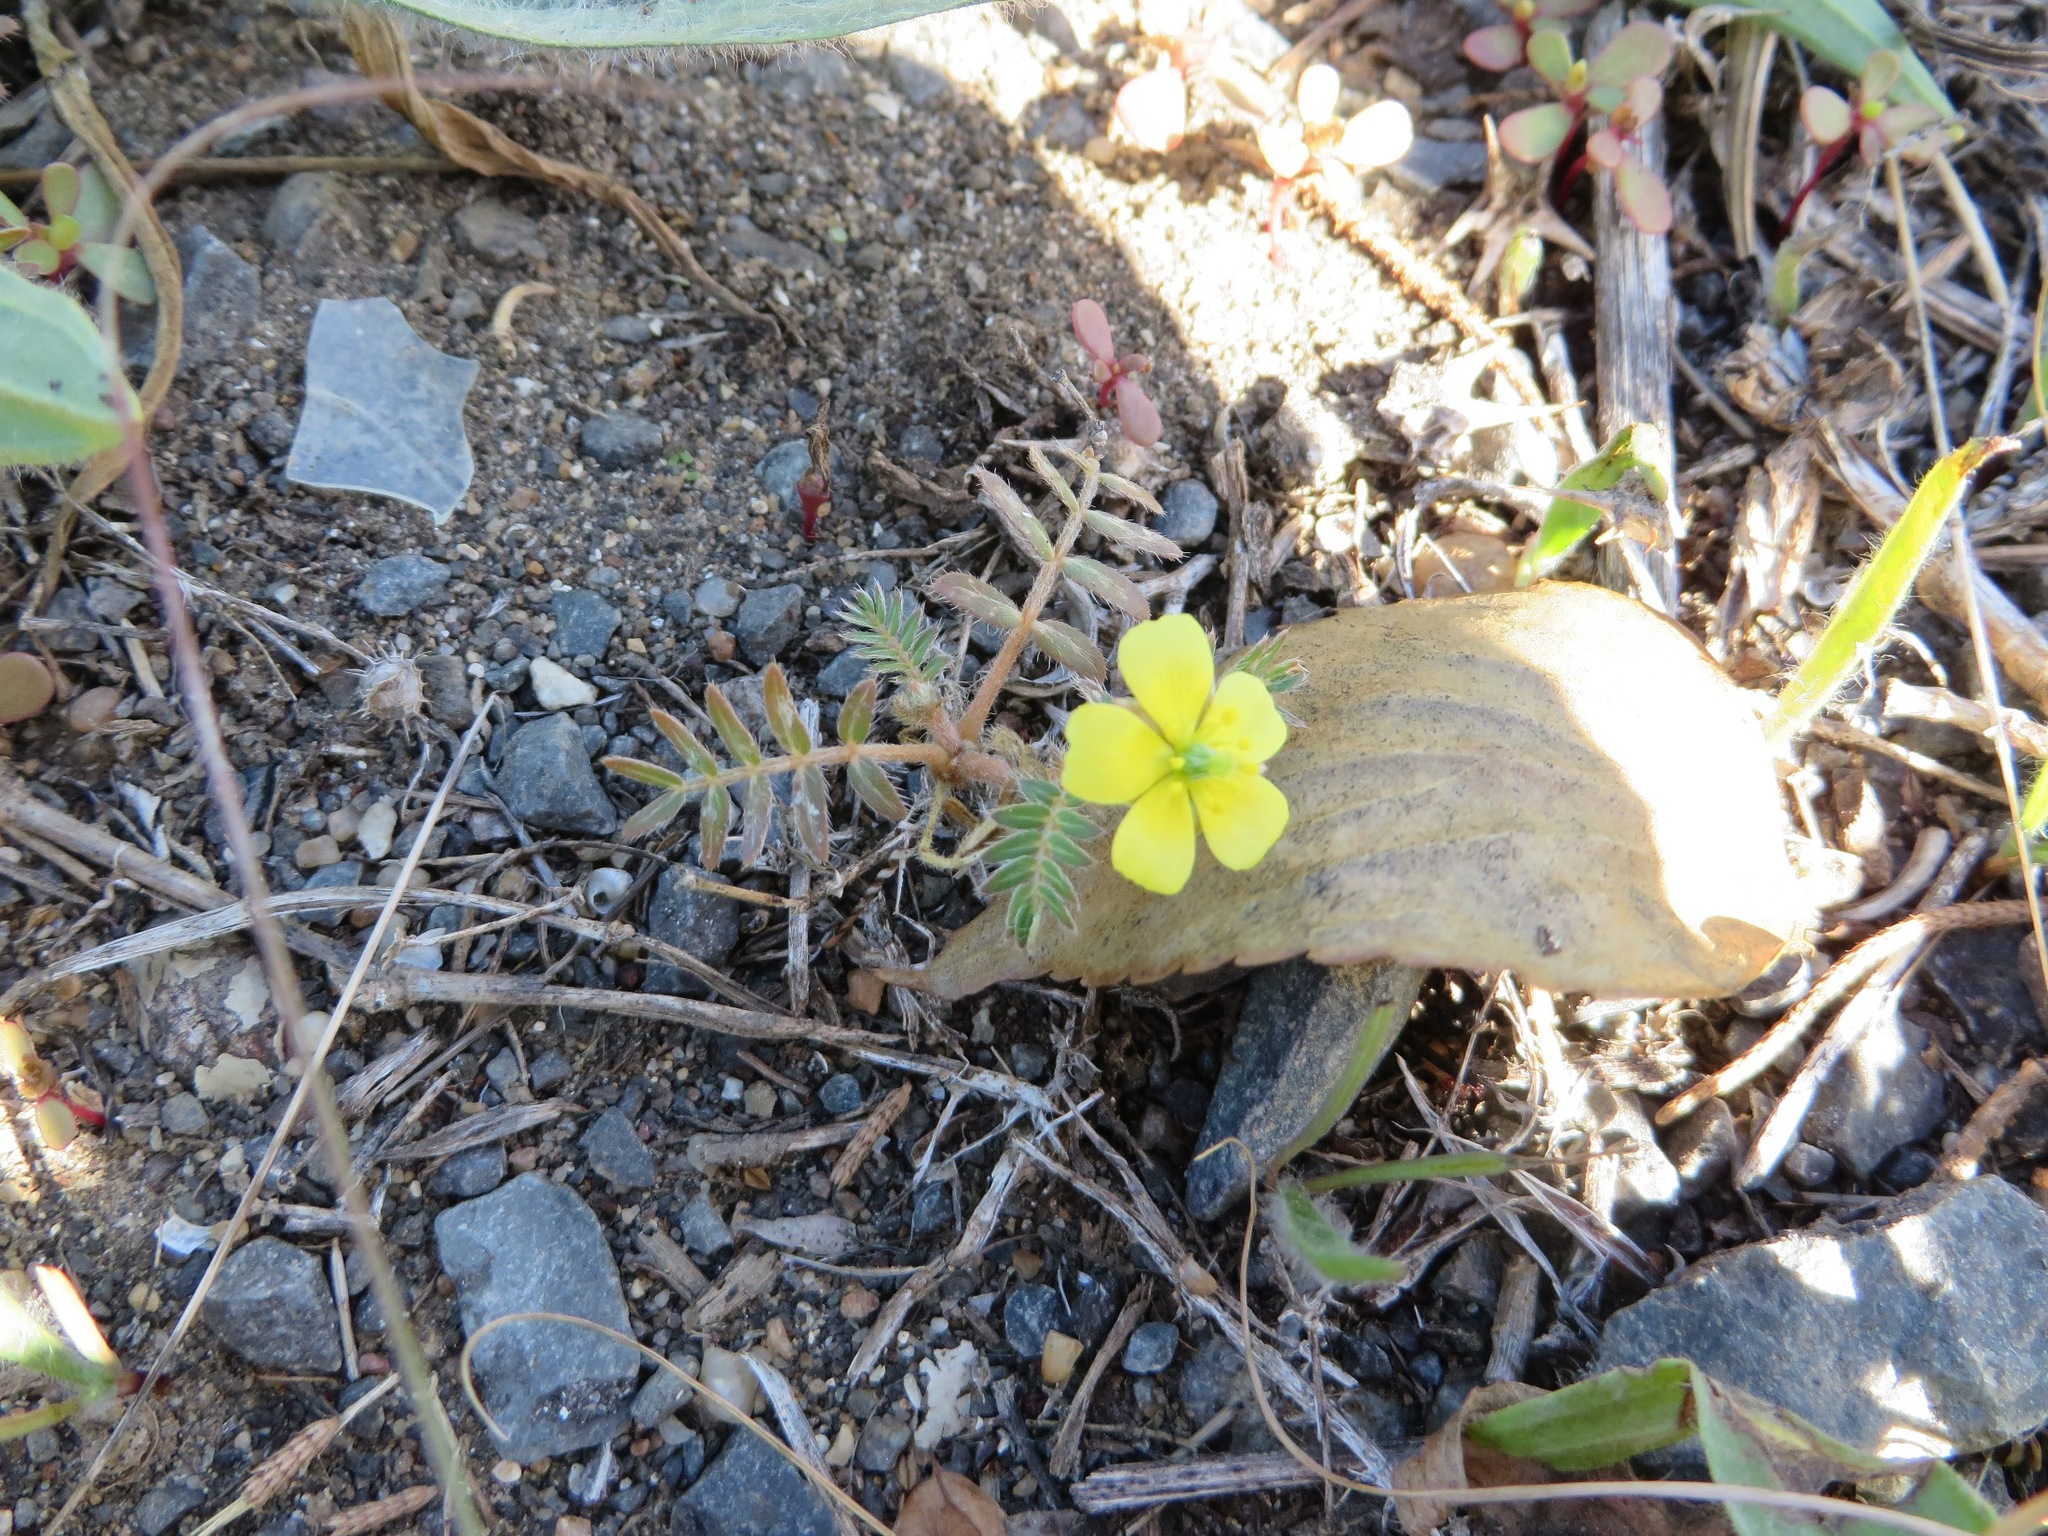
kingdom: Plantae
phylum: Tracheophyta
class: Magnoliopsida
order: Zygophyllales
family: Zygophyllaceae
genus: Tribulus
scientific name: Tribulus terrestris
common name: Puncturevine
